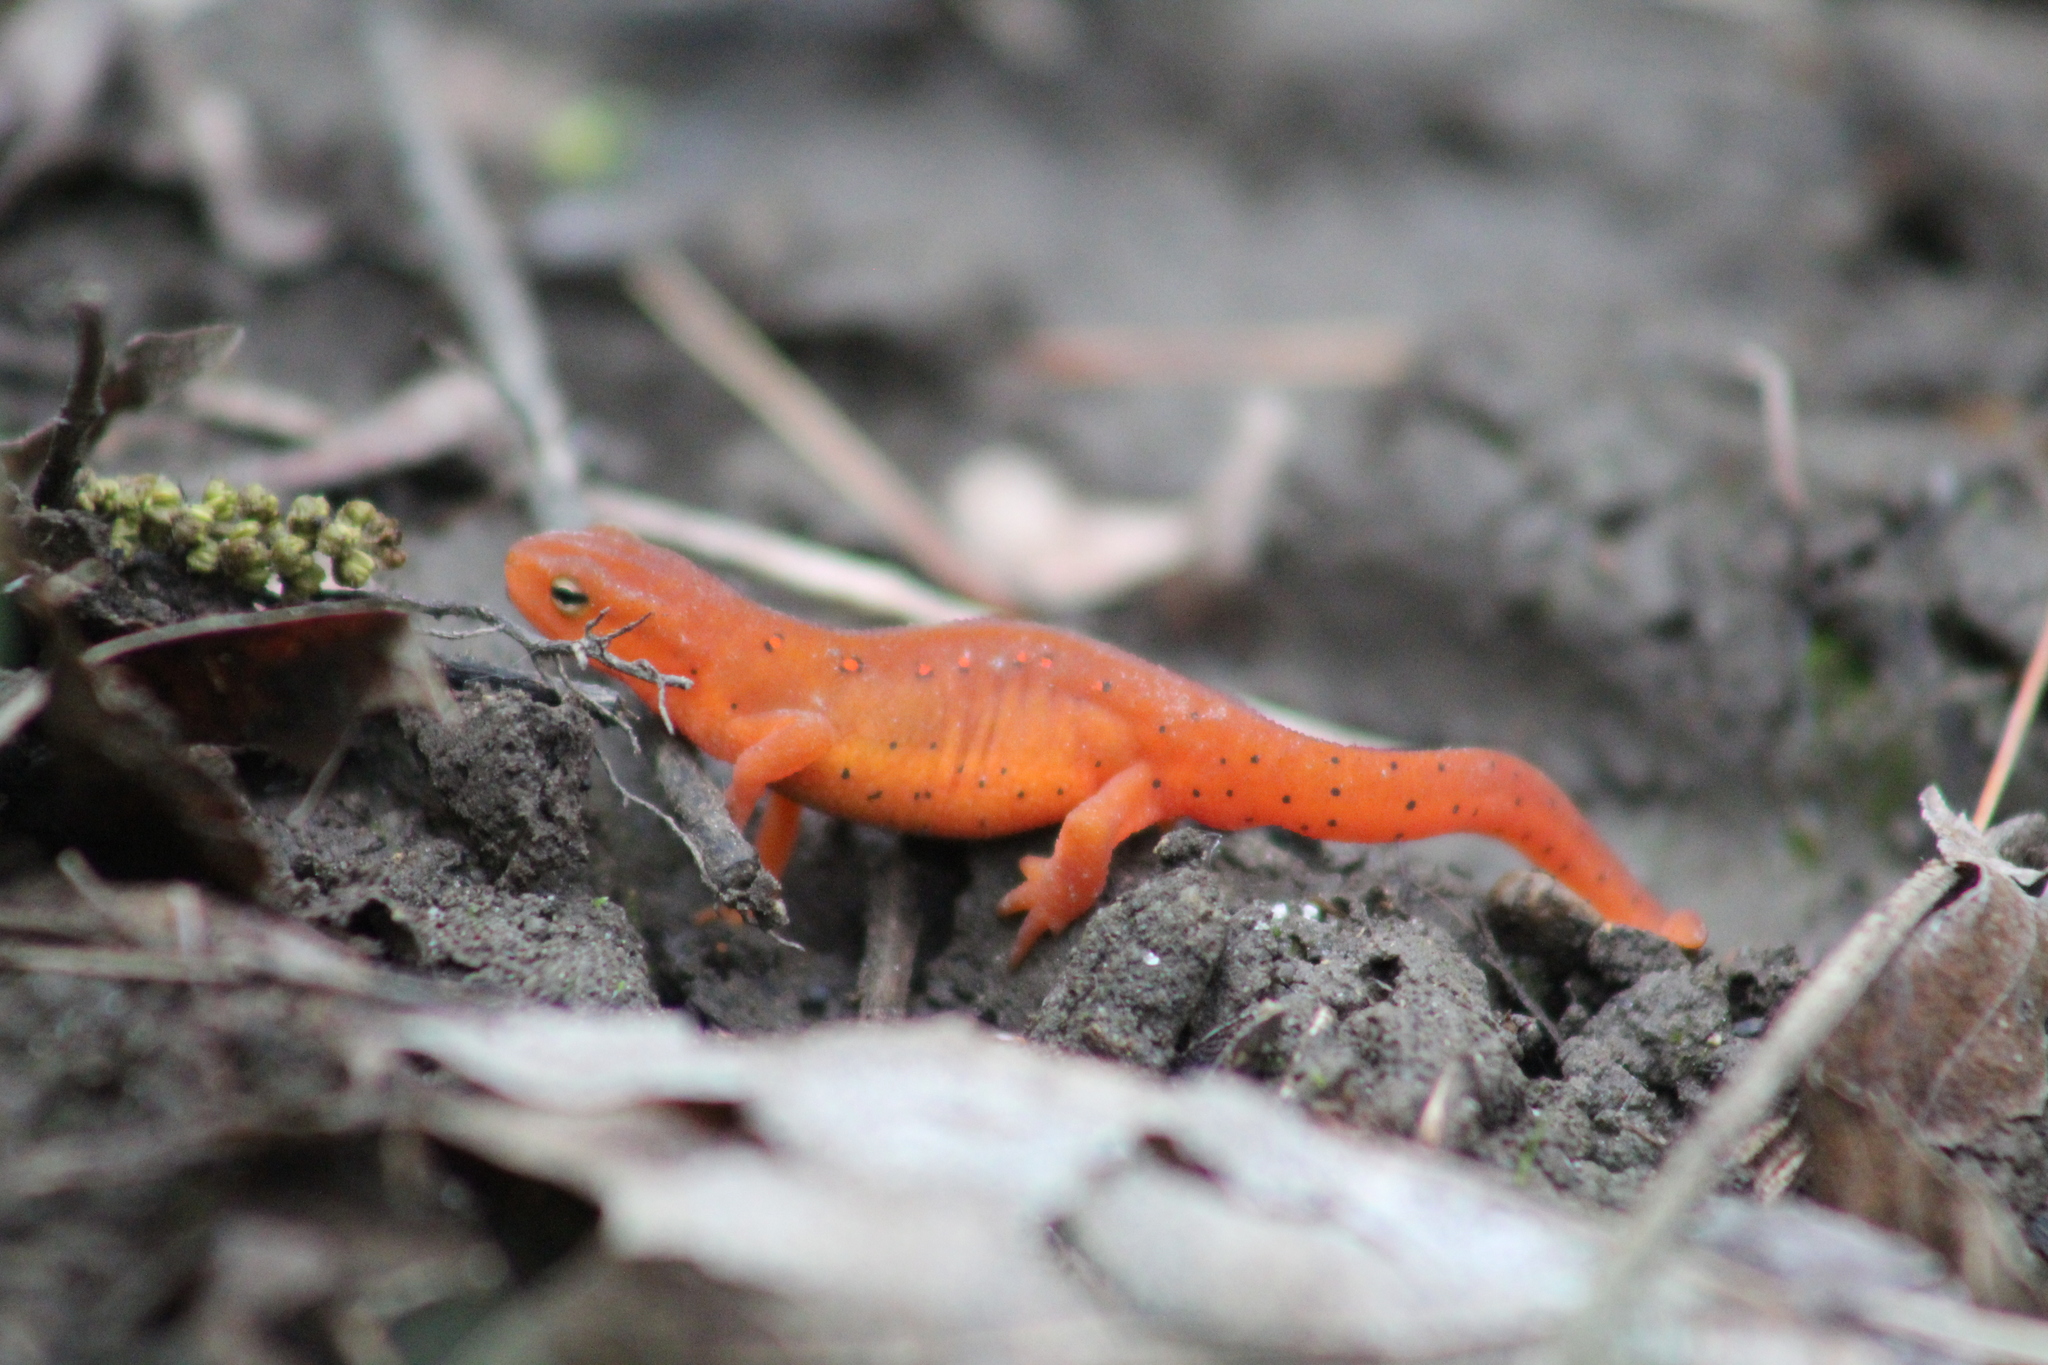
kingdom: Animalia
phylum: Chordata
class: Amphibia
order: Caudata
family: Salamandridae
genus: Notophthalmus
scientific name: Notophthalmus viridescens
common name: Eastern newt
